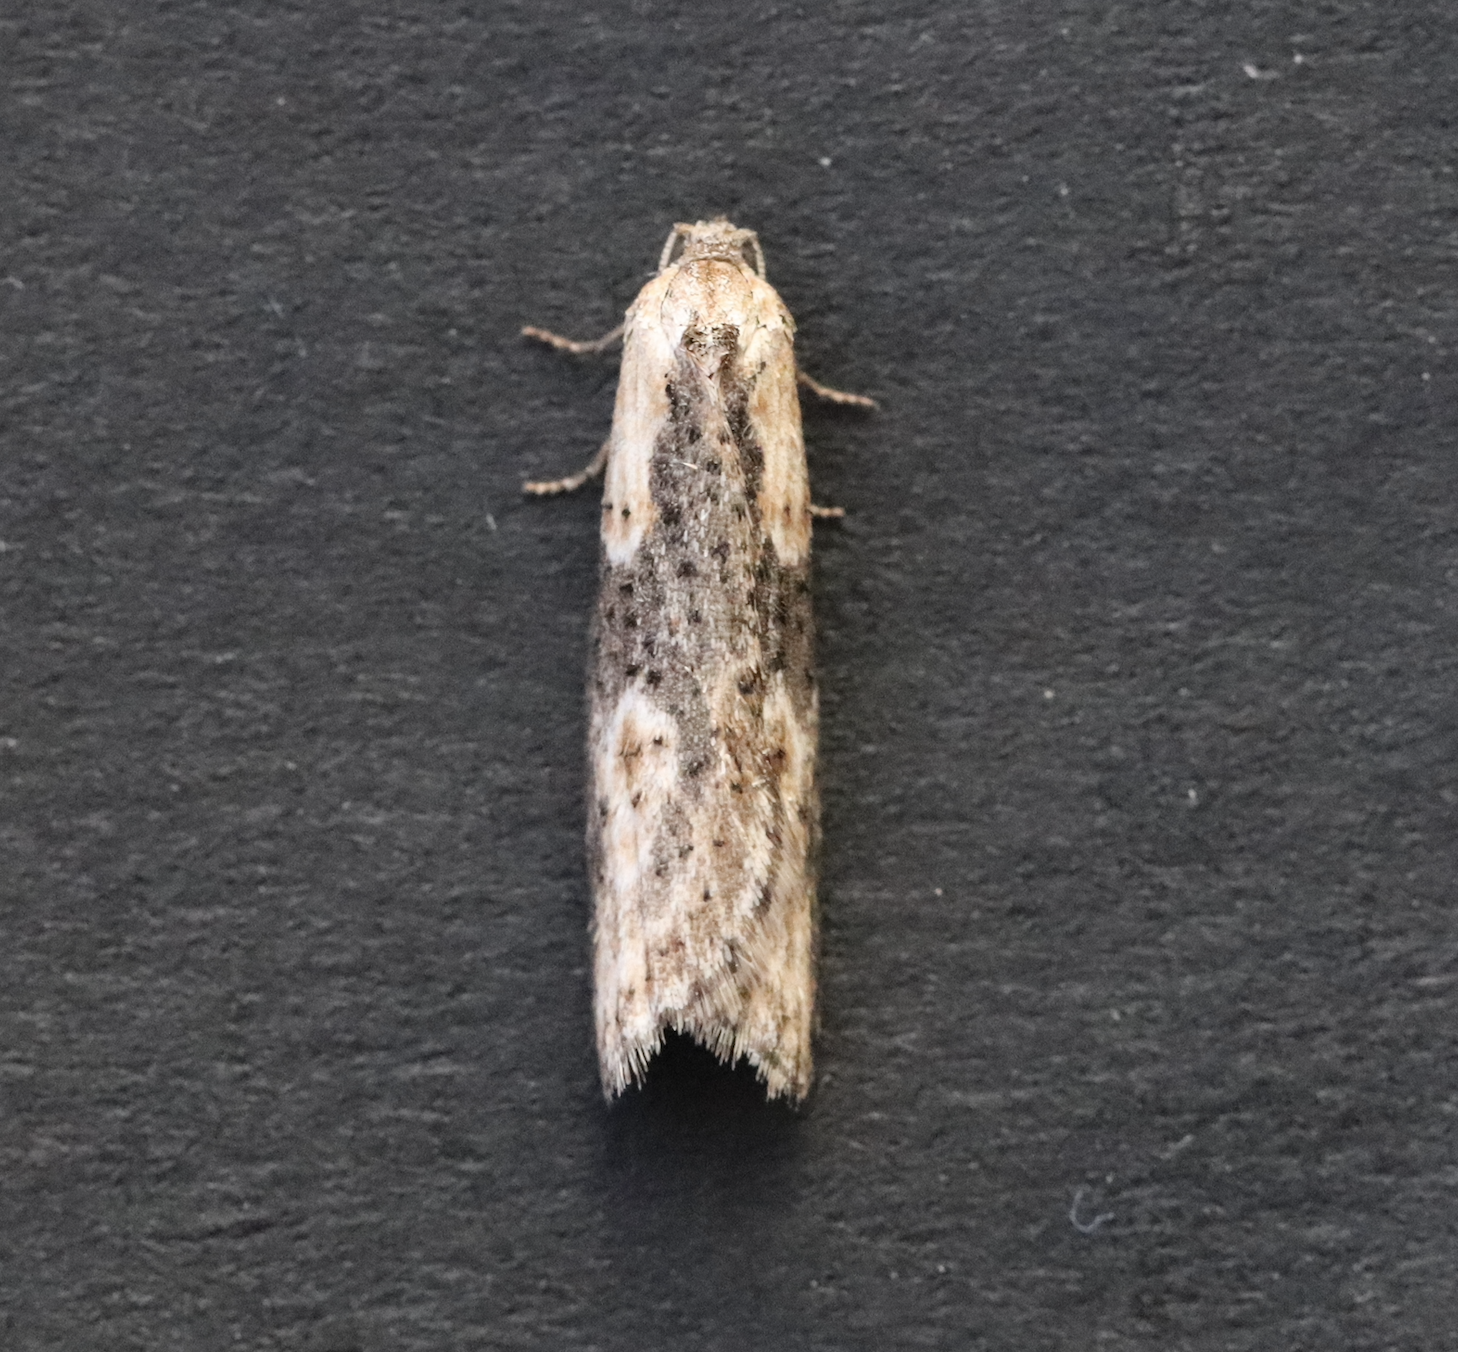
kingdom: Animalia
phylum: Arthropoda
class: Insecta
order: Lepidoptera
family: Tortricidae
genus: Doloploca
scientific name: Doloploca punctulana
